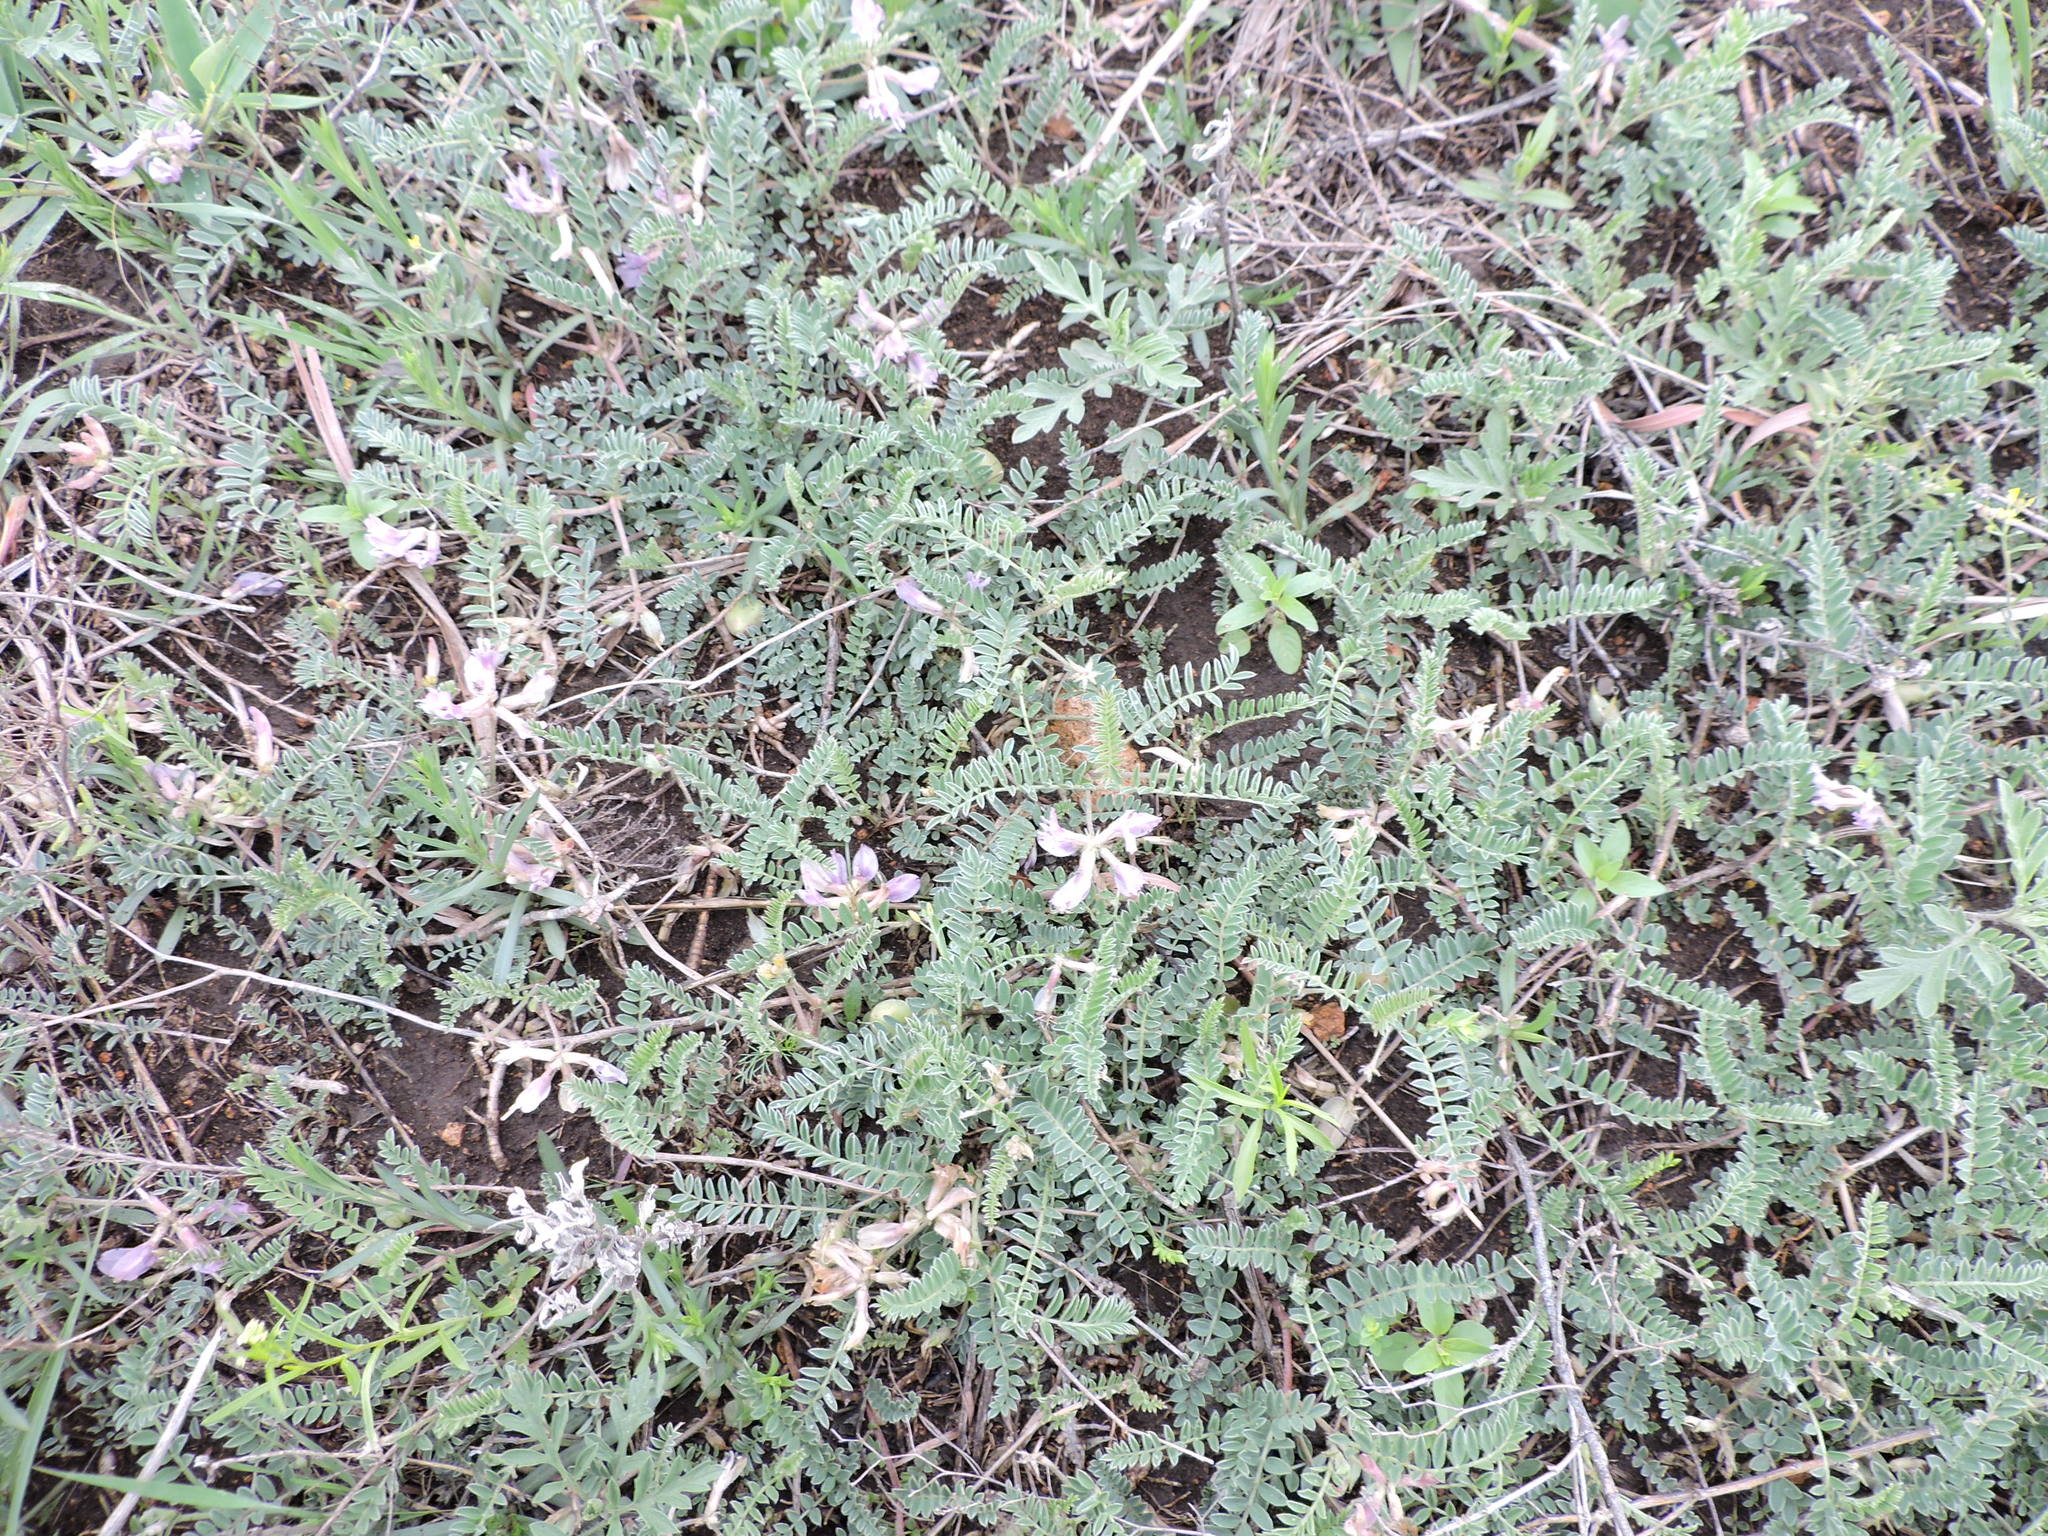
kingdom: Plantae
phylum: Tracheophyta
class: Magnoliopsida
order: Fabales
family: Fabaceae
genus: Astragalus
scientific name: Astragalus plattensis
